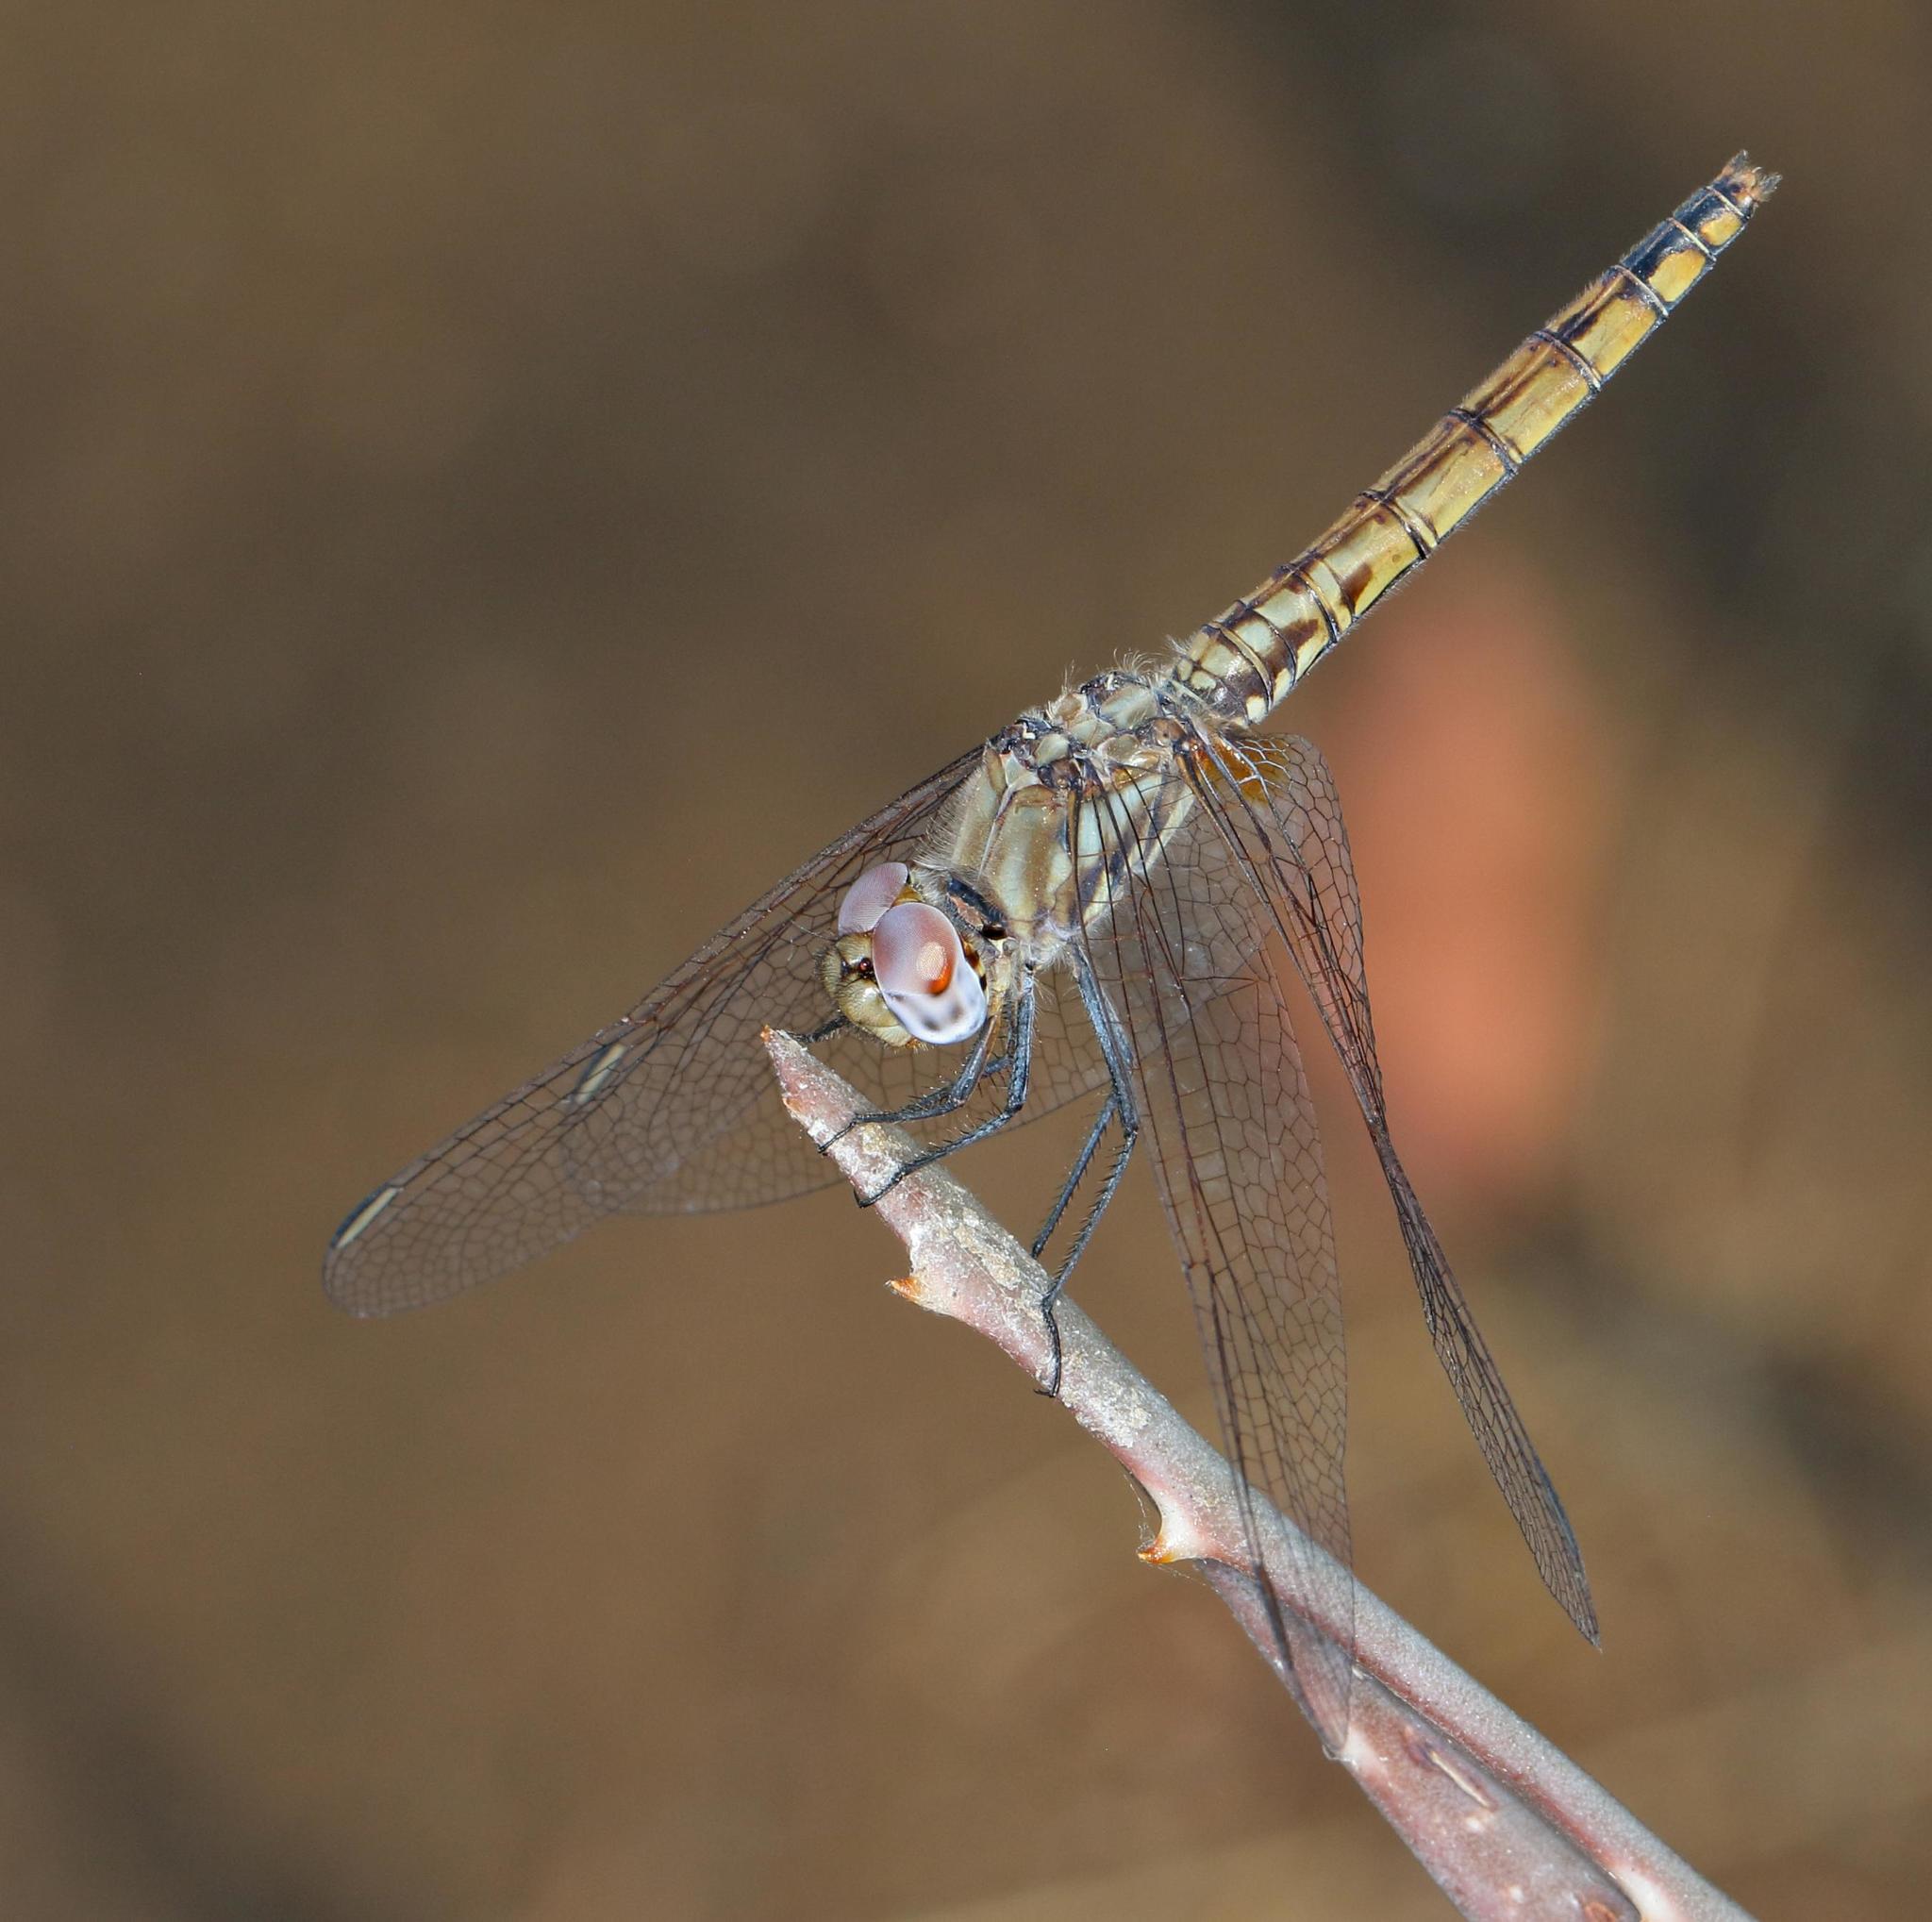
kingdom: Animalia
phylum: Arthropoda
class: Insecta
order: Odonata
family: Libellulidae
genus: Trithemis
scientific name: Trithemis annulata
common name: Violet dropwing
